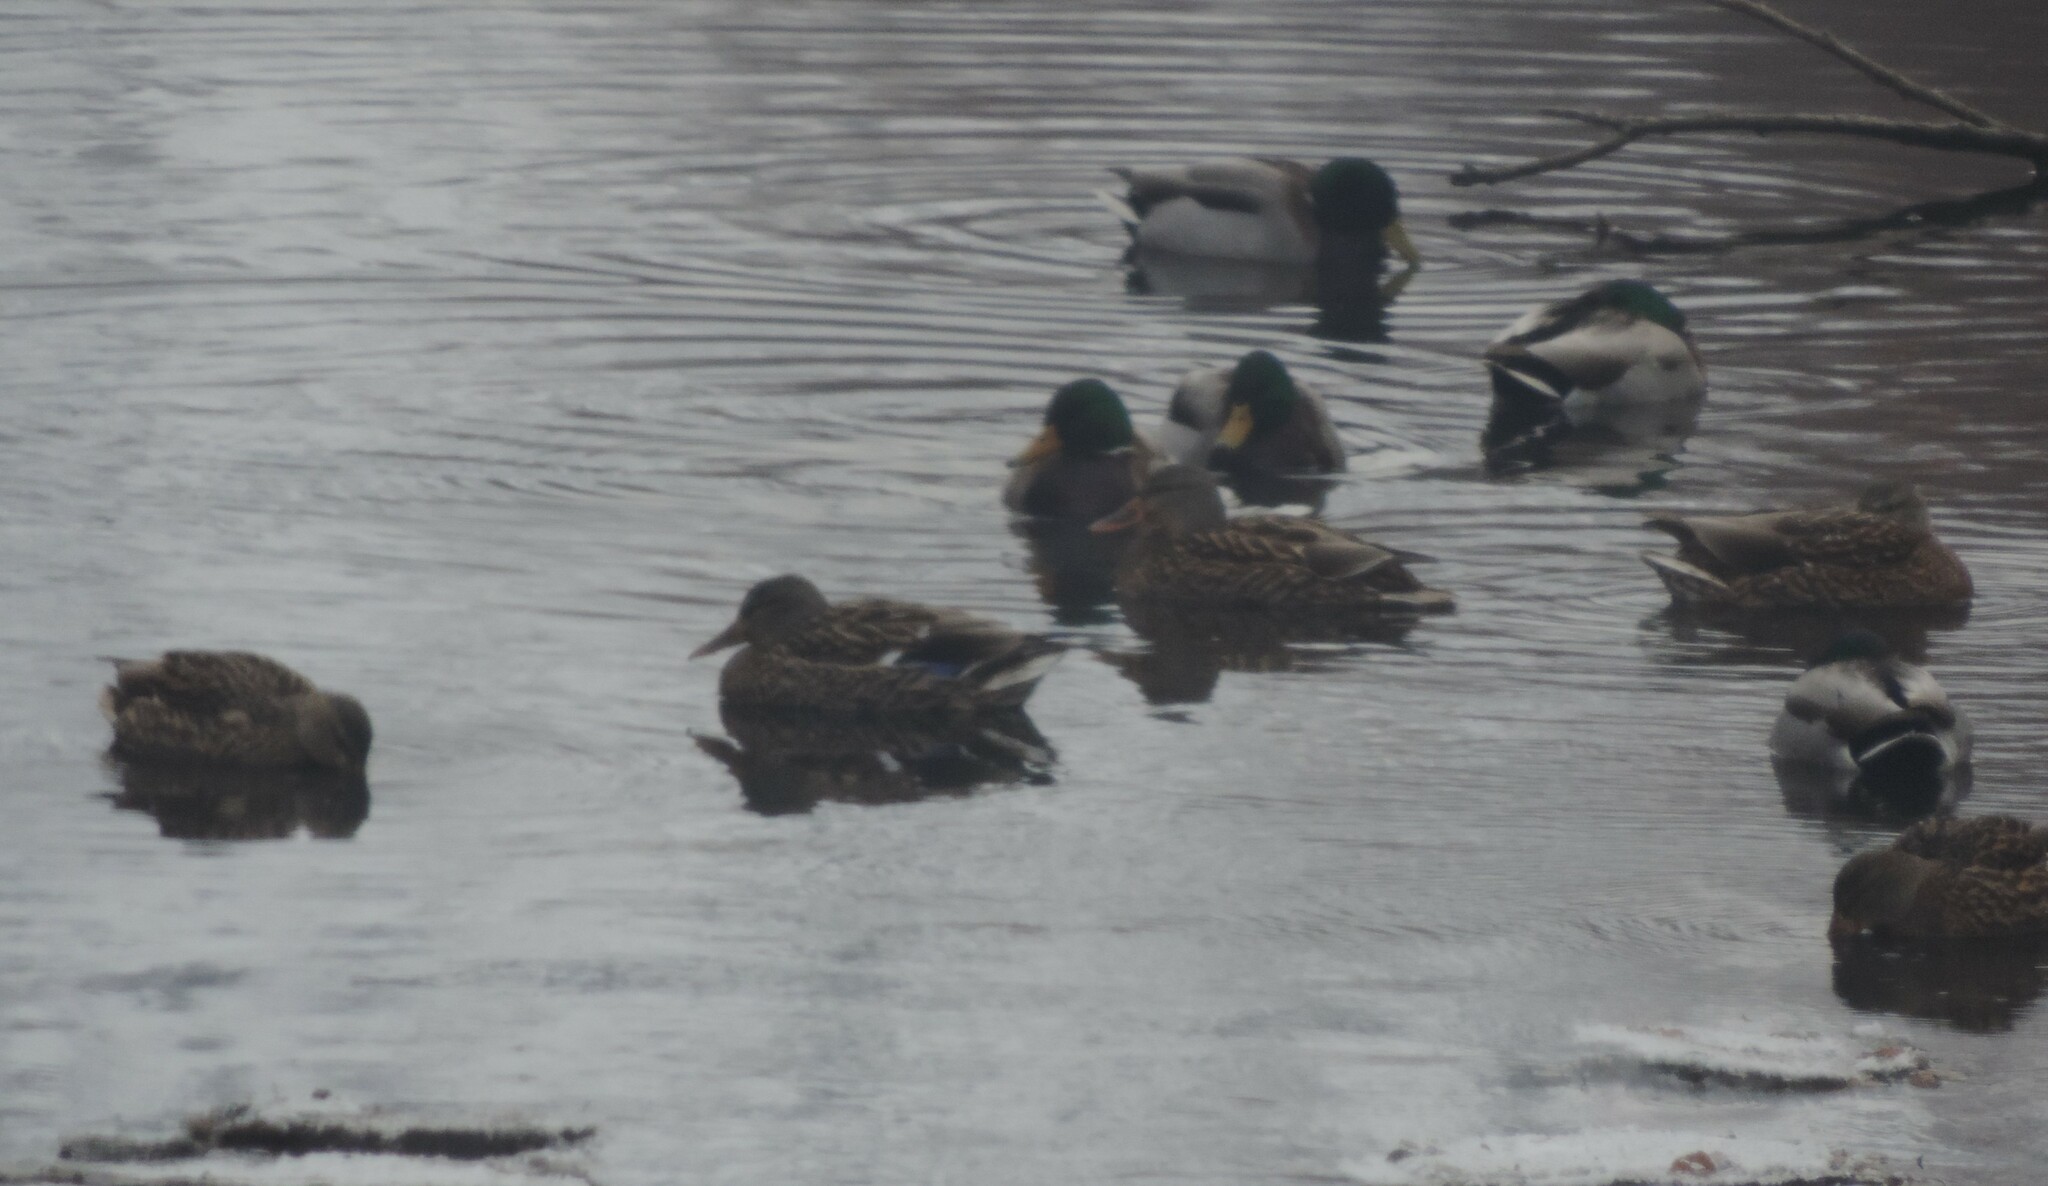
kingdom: Animalia
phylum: Chordata
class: Aves
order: Anseriformes
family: Anatidae
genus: Anas
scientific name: Anas platyrhynchos
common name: Mallard
